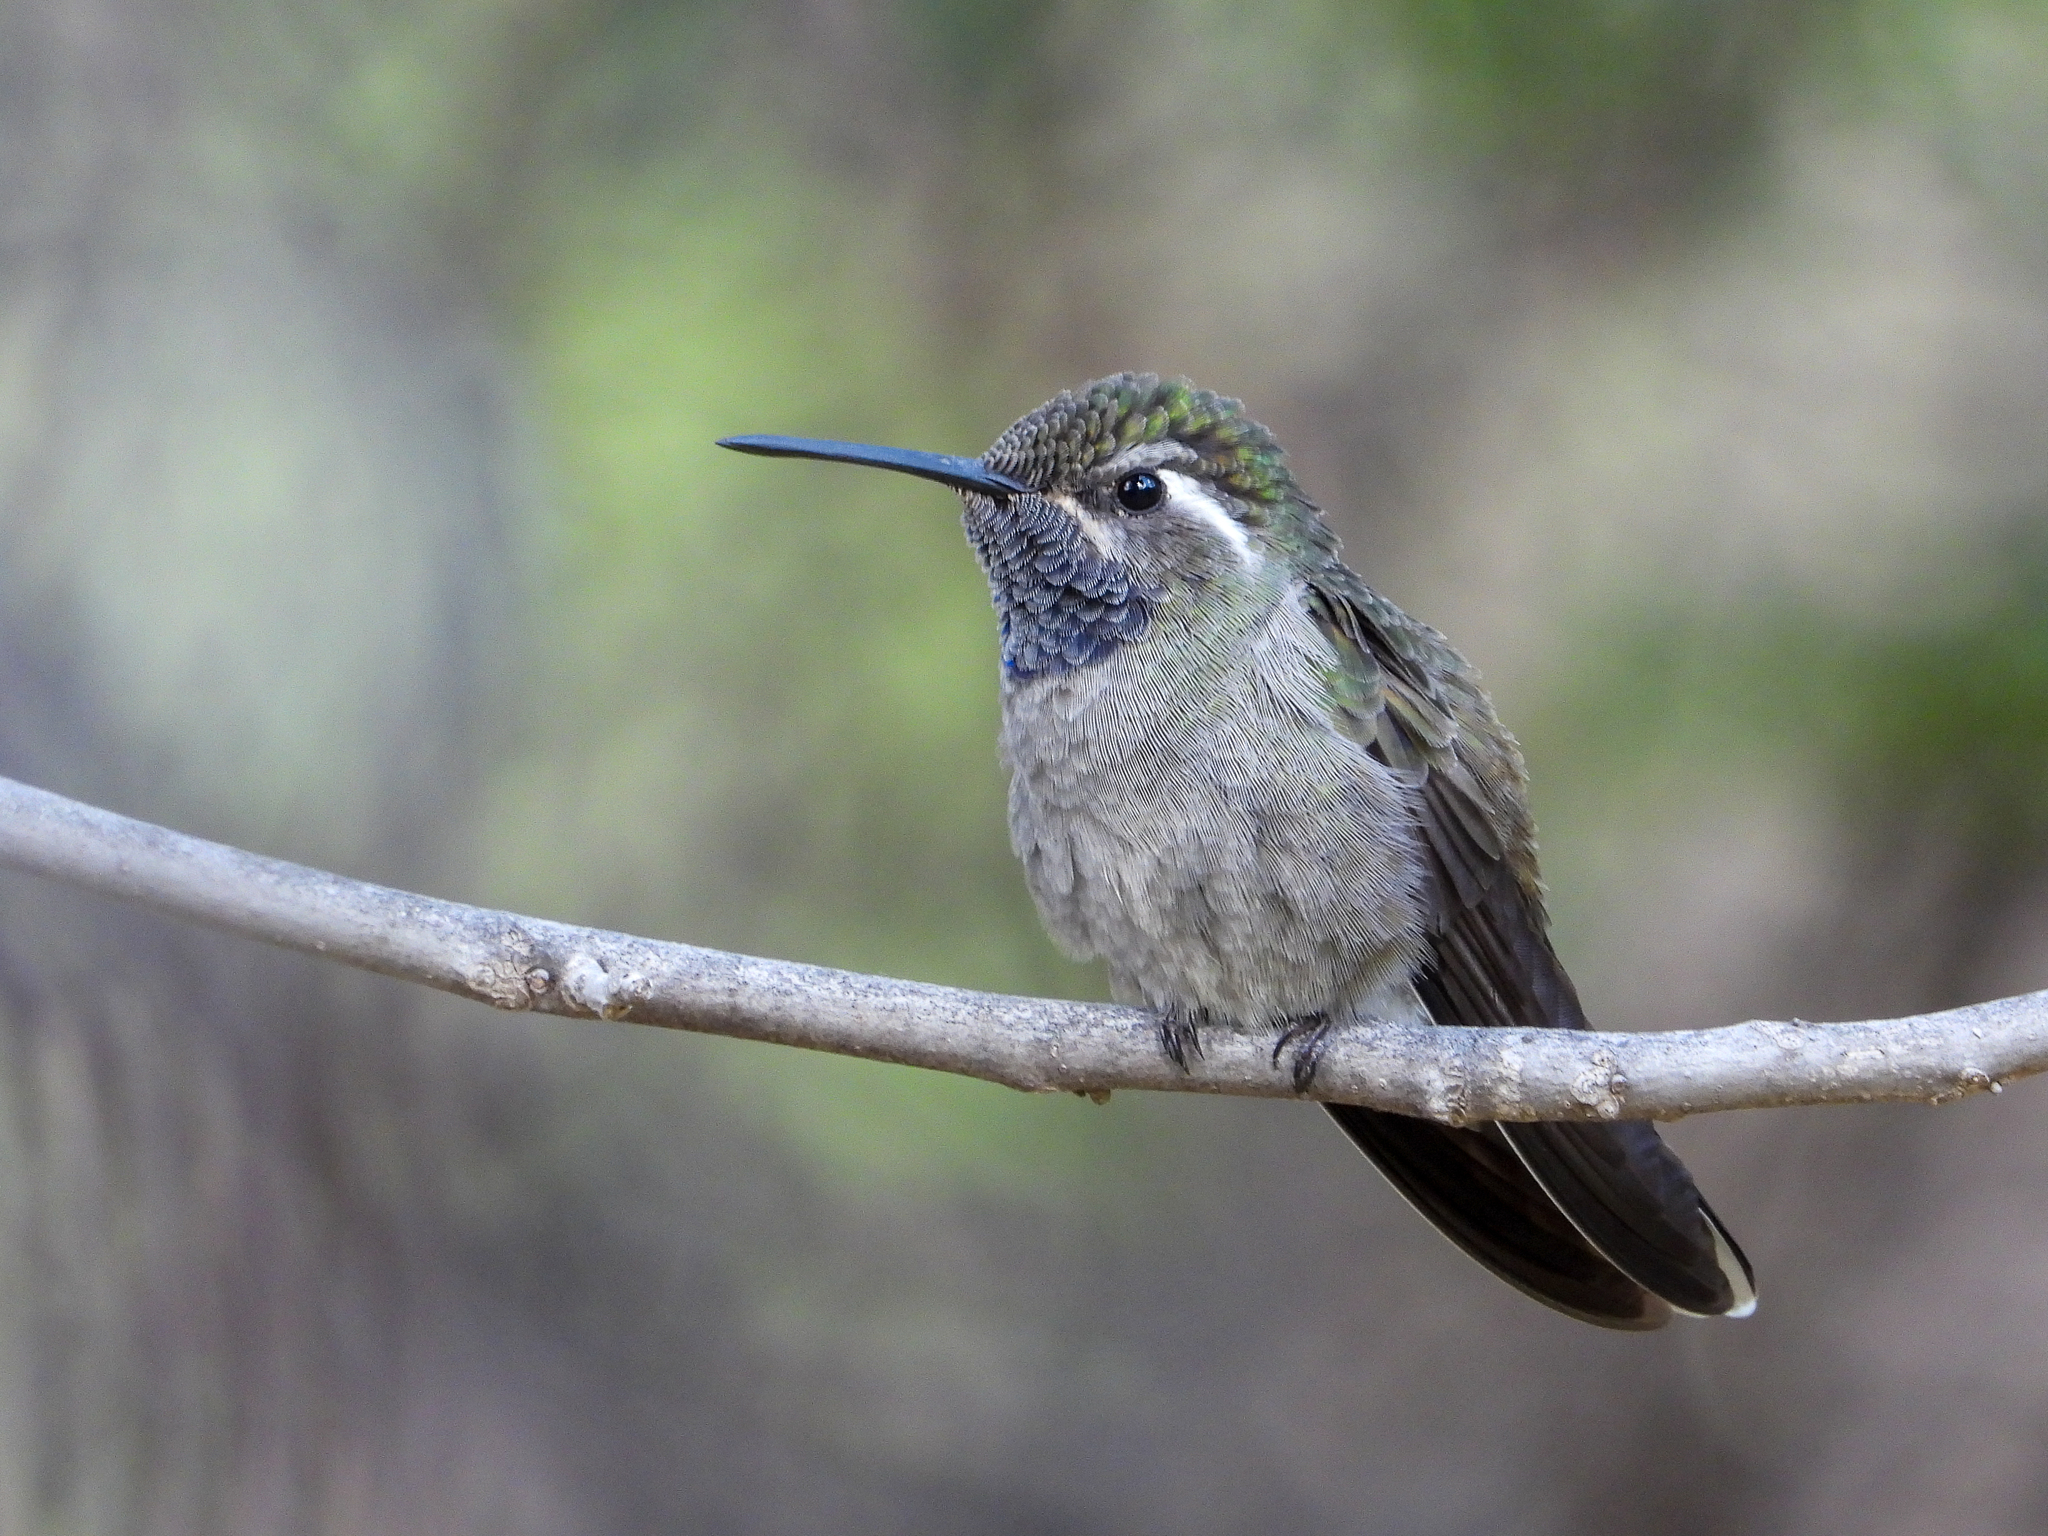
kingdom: Animalia
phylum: Chordata
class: Aves
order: Apodiformes
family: Trochilidae
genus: Lampornis
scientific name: Lampornis clemenciae
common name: Blue-throated mountaingem
